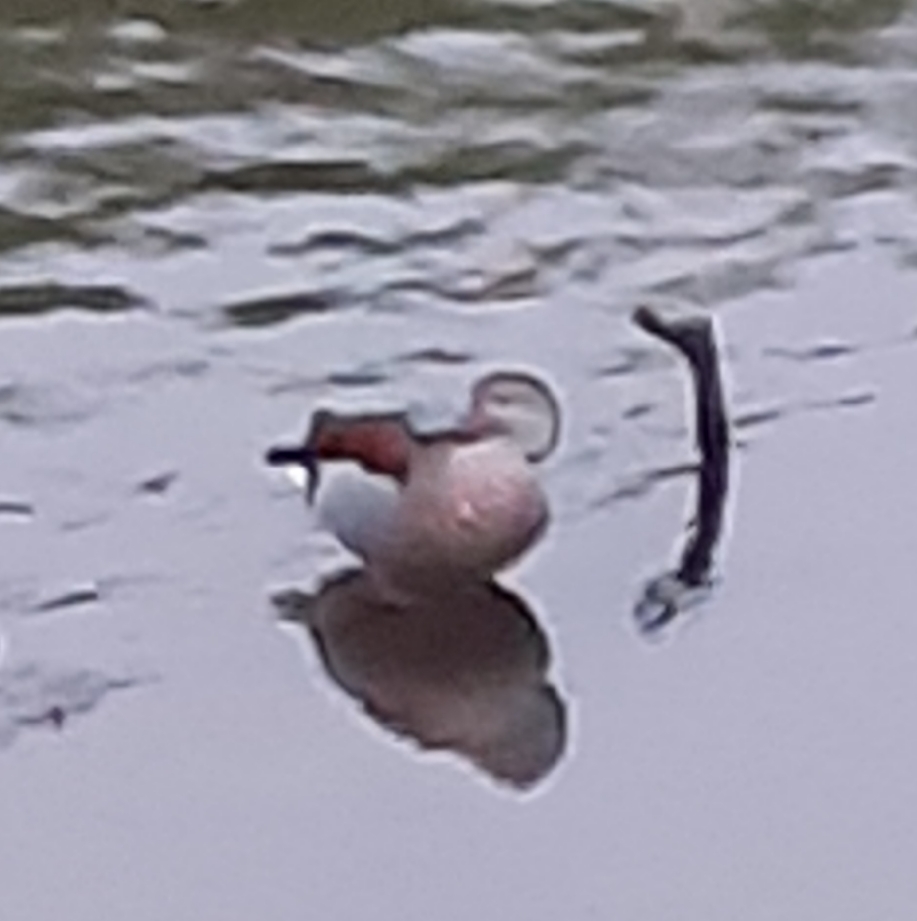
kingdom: Animalia
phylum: Chordata
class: Aves
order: Anseriformes
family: Anatidae
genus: Callonetta
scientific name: Callonetta leucophrys
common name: Ringed teal
